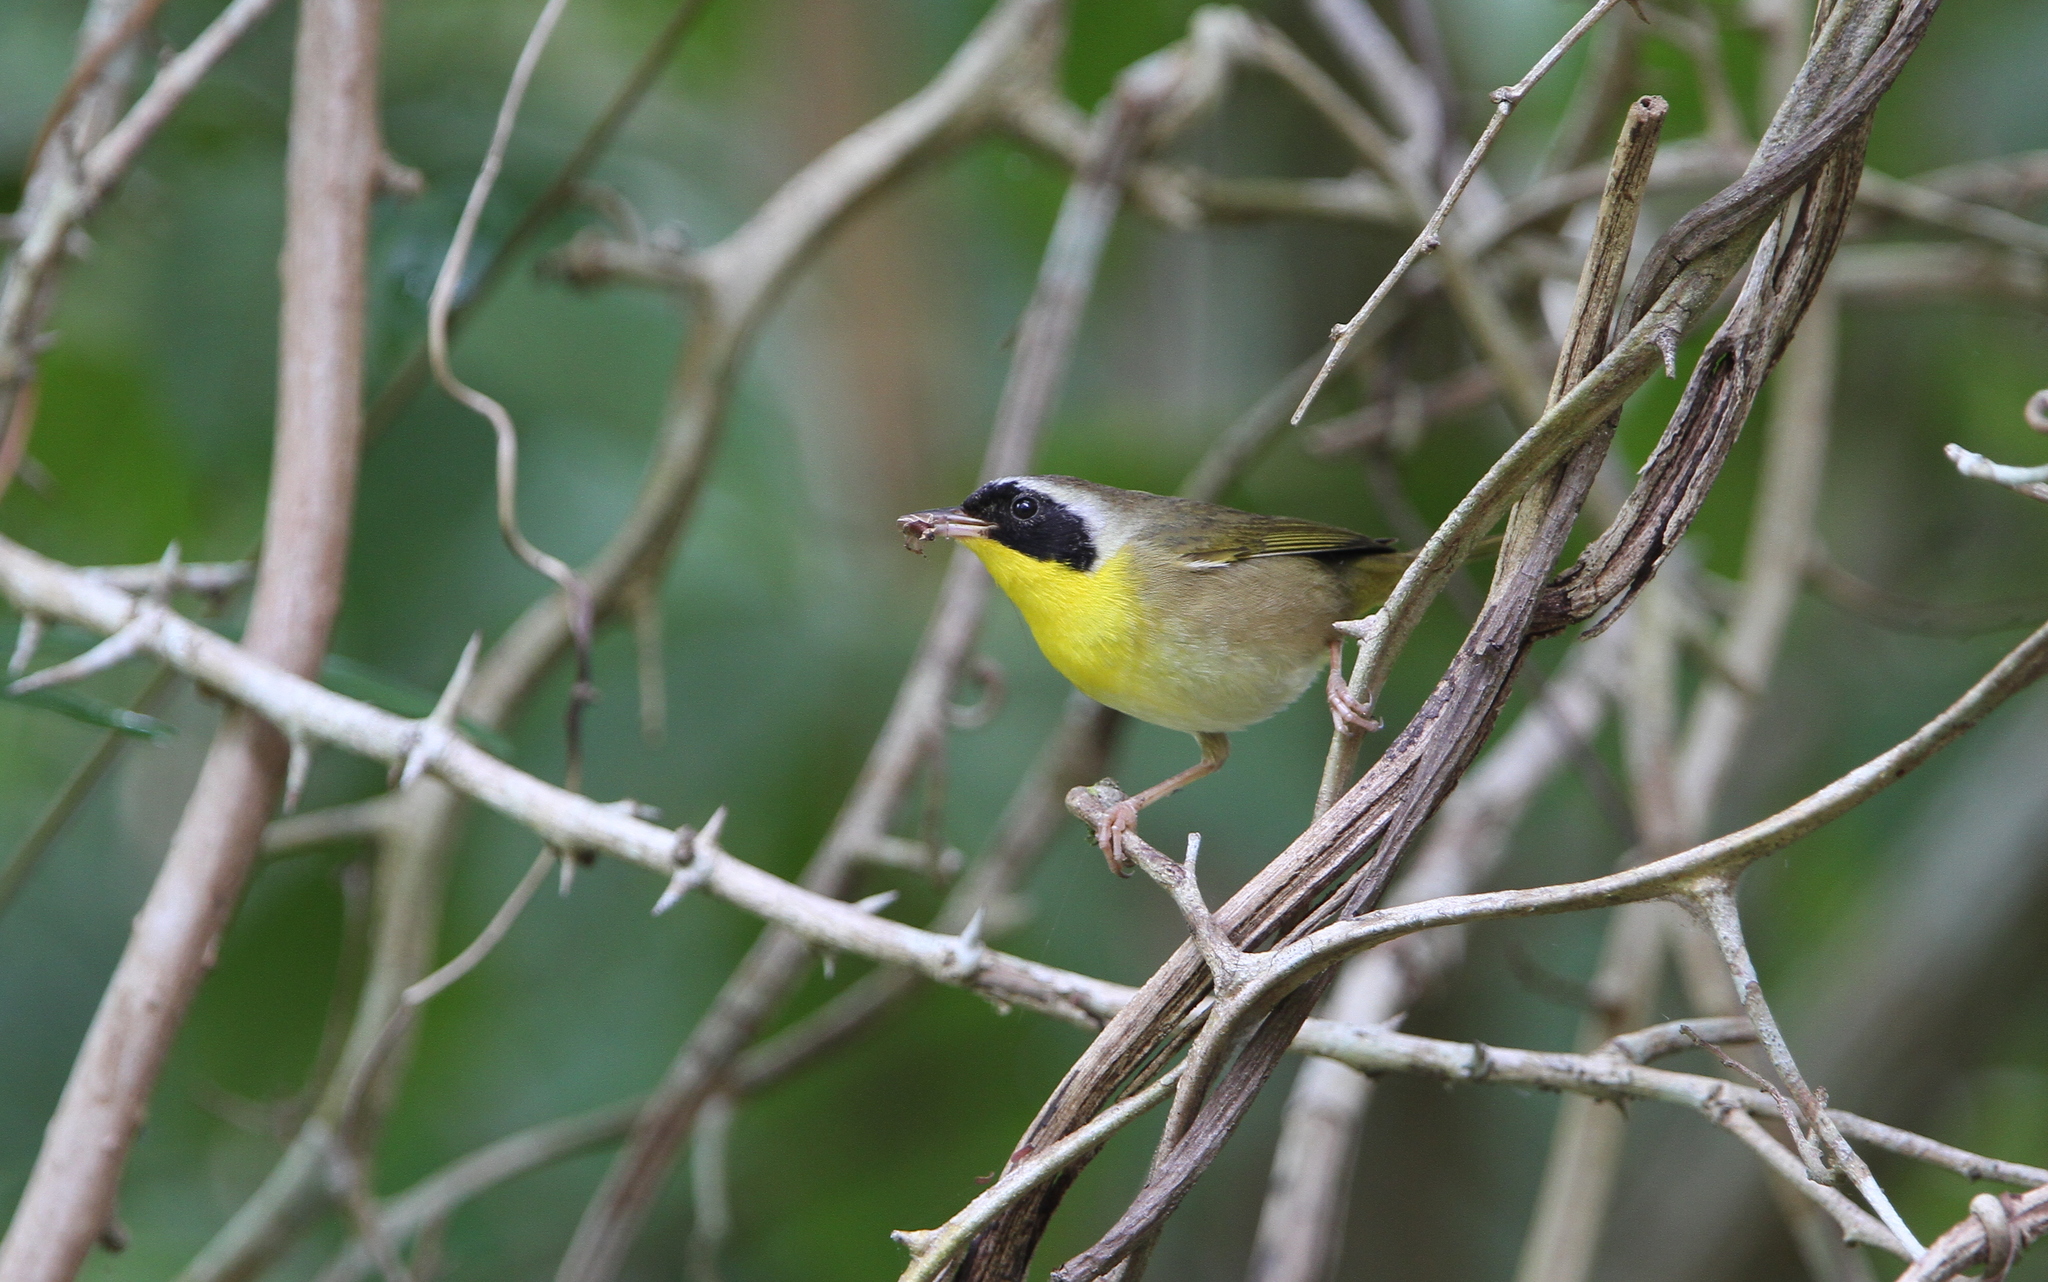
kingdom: Animalia
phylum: Chordata
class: Aves
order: Passeriformes
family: Parulidae
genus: Geothlypis
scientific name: Geothlypis trichas
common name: Common yellowthroat
